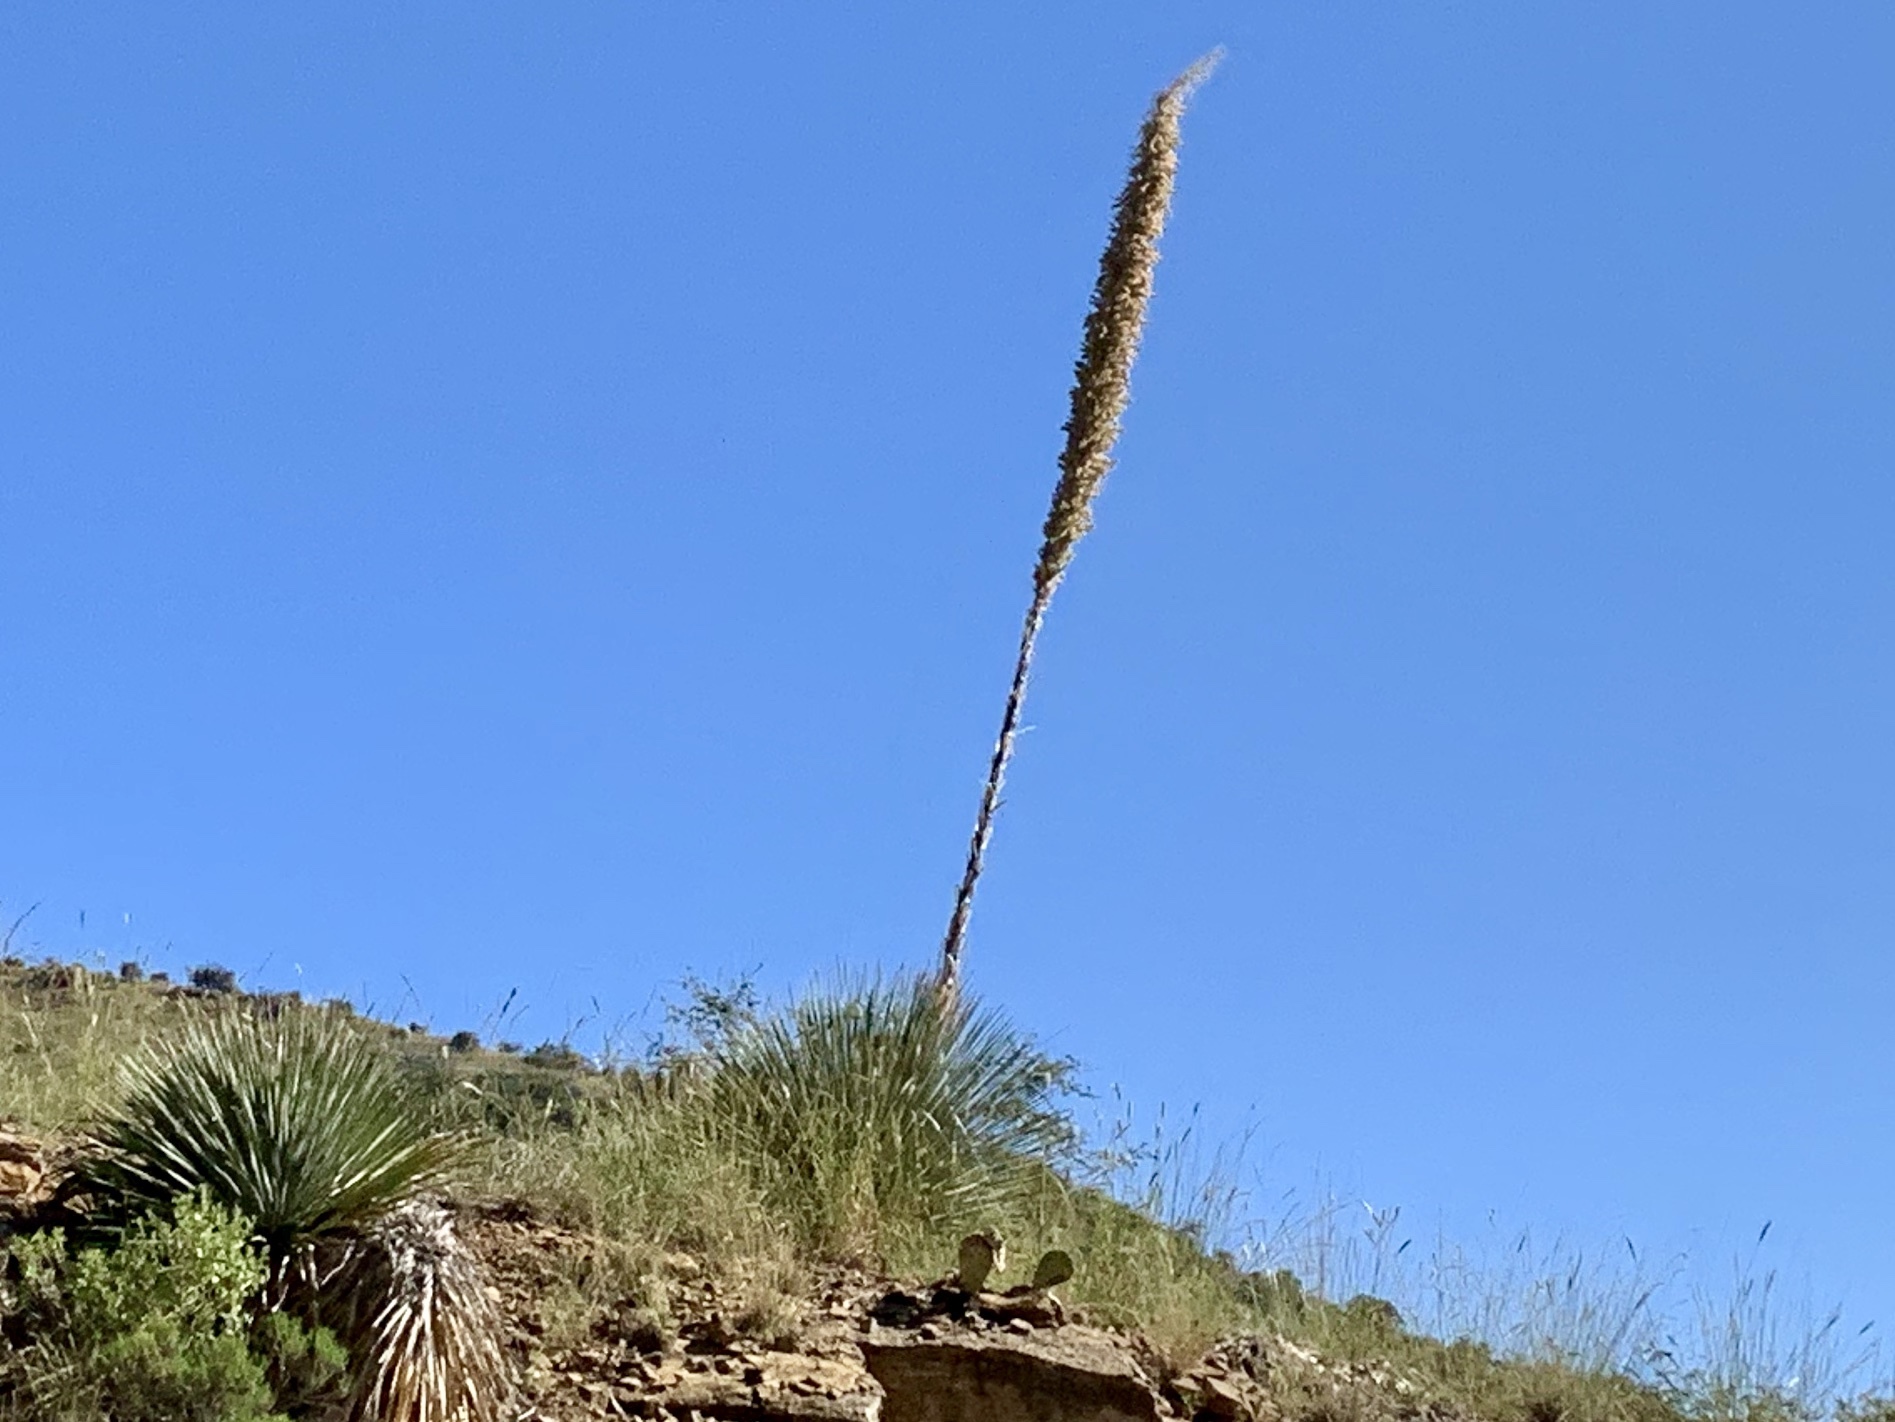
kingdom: Plantae
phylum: Tracheophyta
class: Liliopsida
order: Asparagales
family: Asparagaceae
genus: Dasylirion
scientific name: Dasylirion wheeleri
